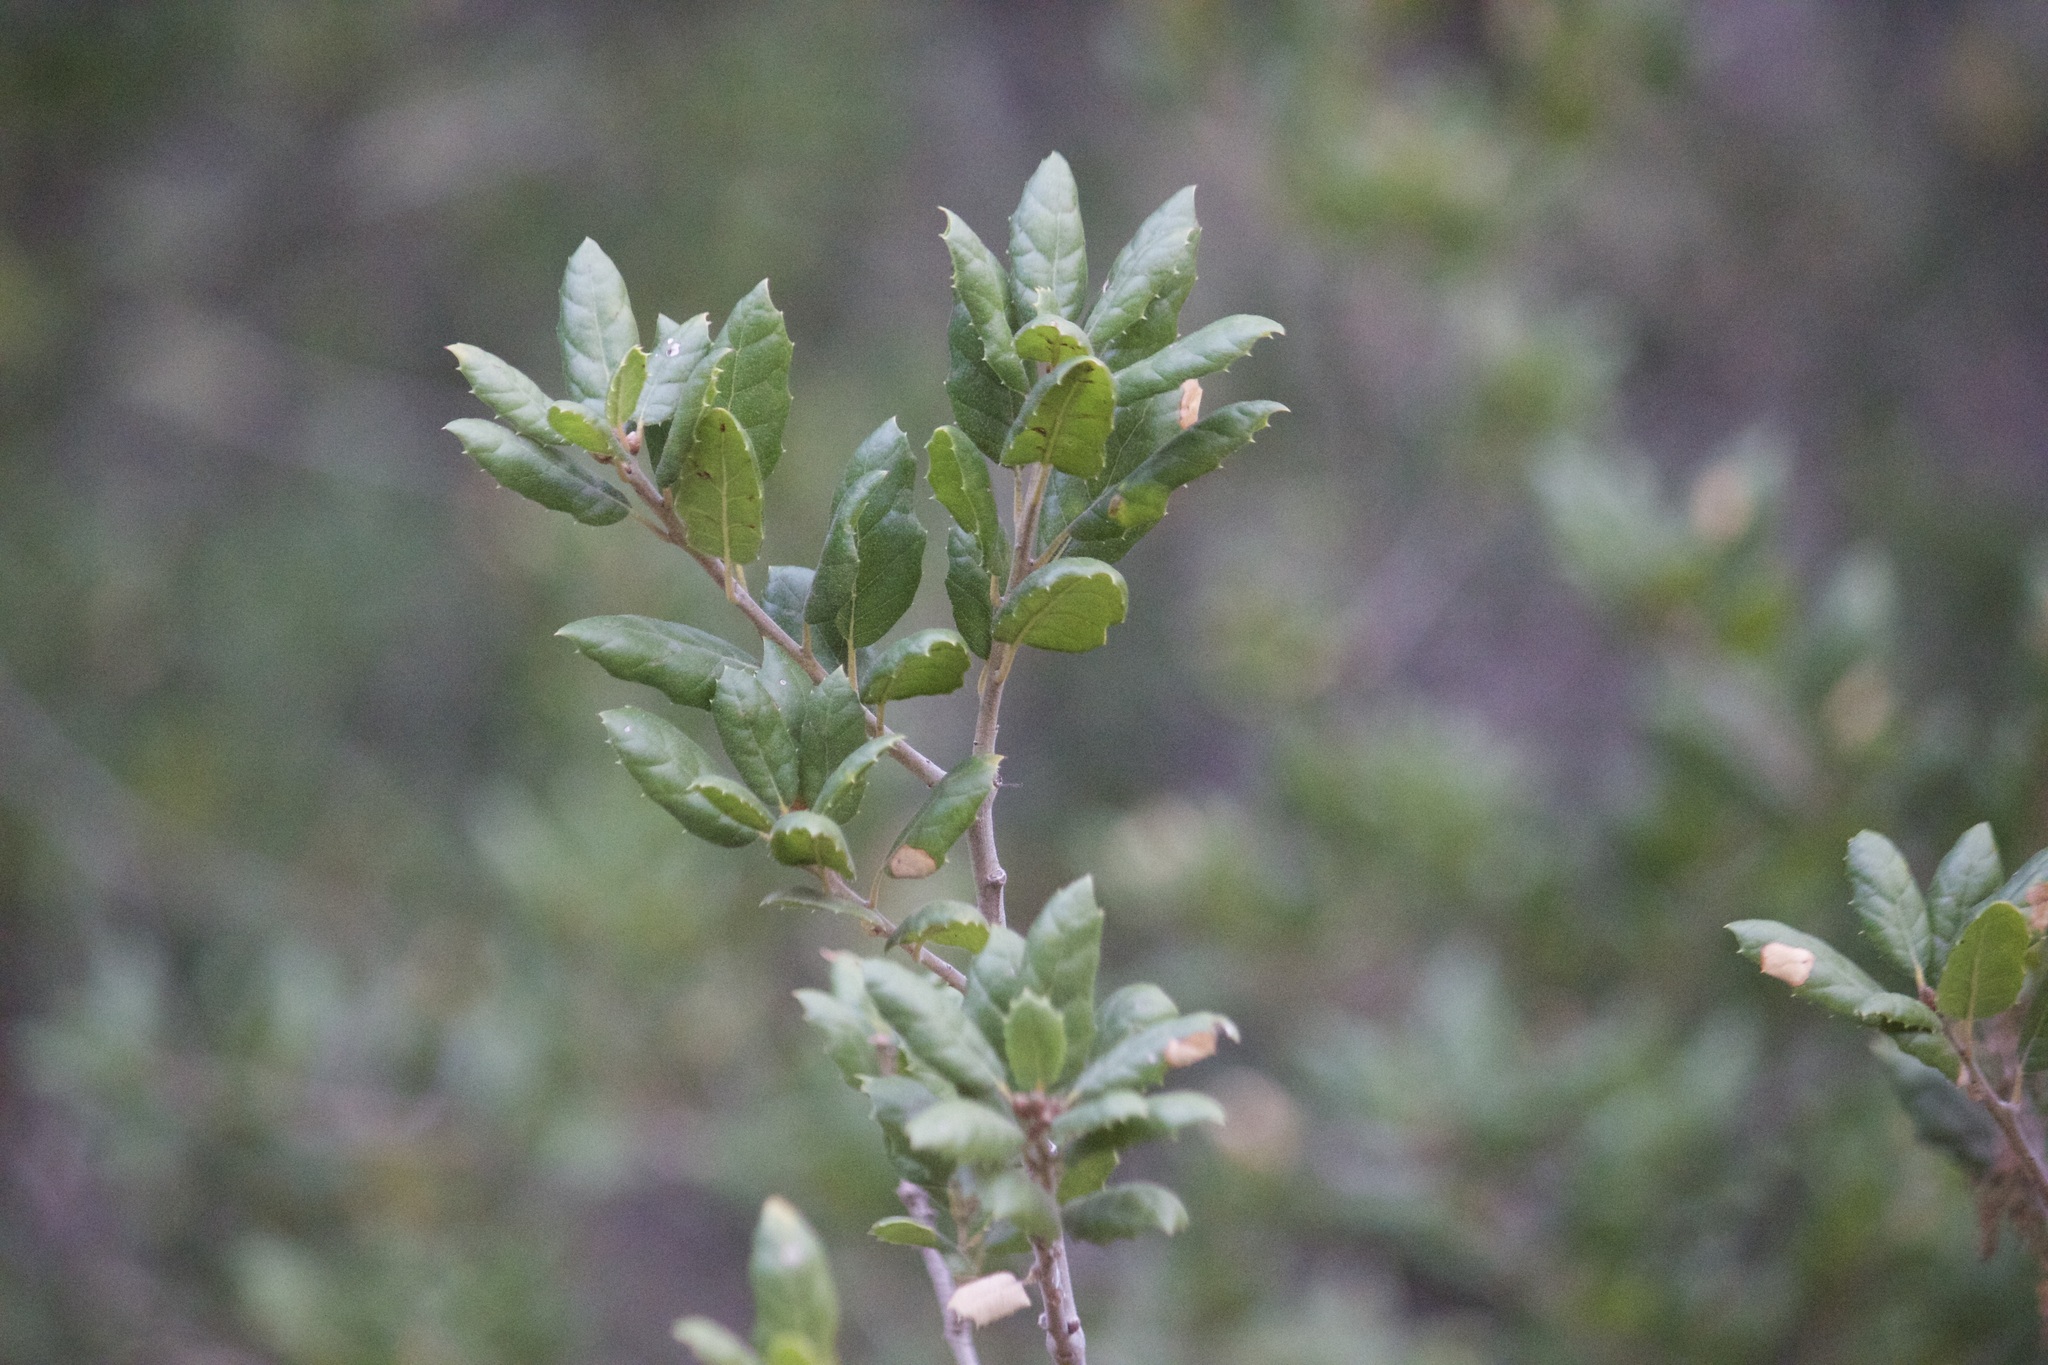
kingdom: Plantae
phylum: Tracheophyta
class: Magnoliopsida
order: Fagales
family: Fagaceae
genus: Quercus
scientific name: Quercus agrifolia
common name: California live oak
